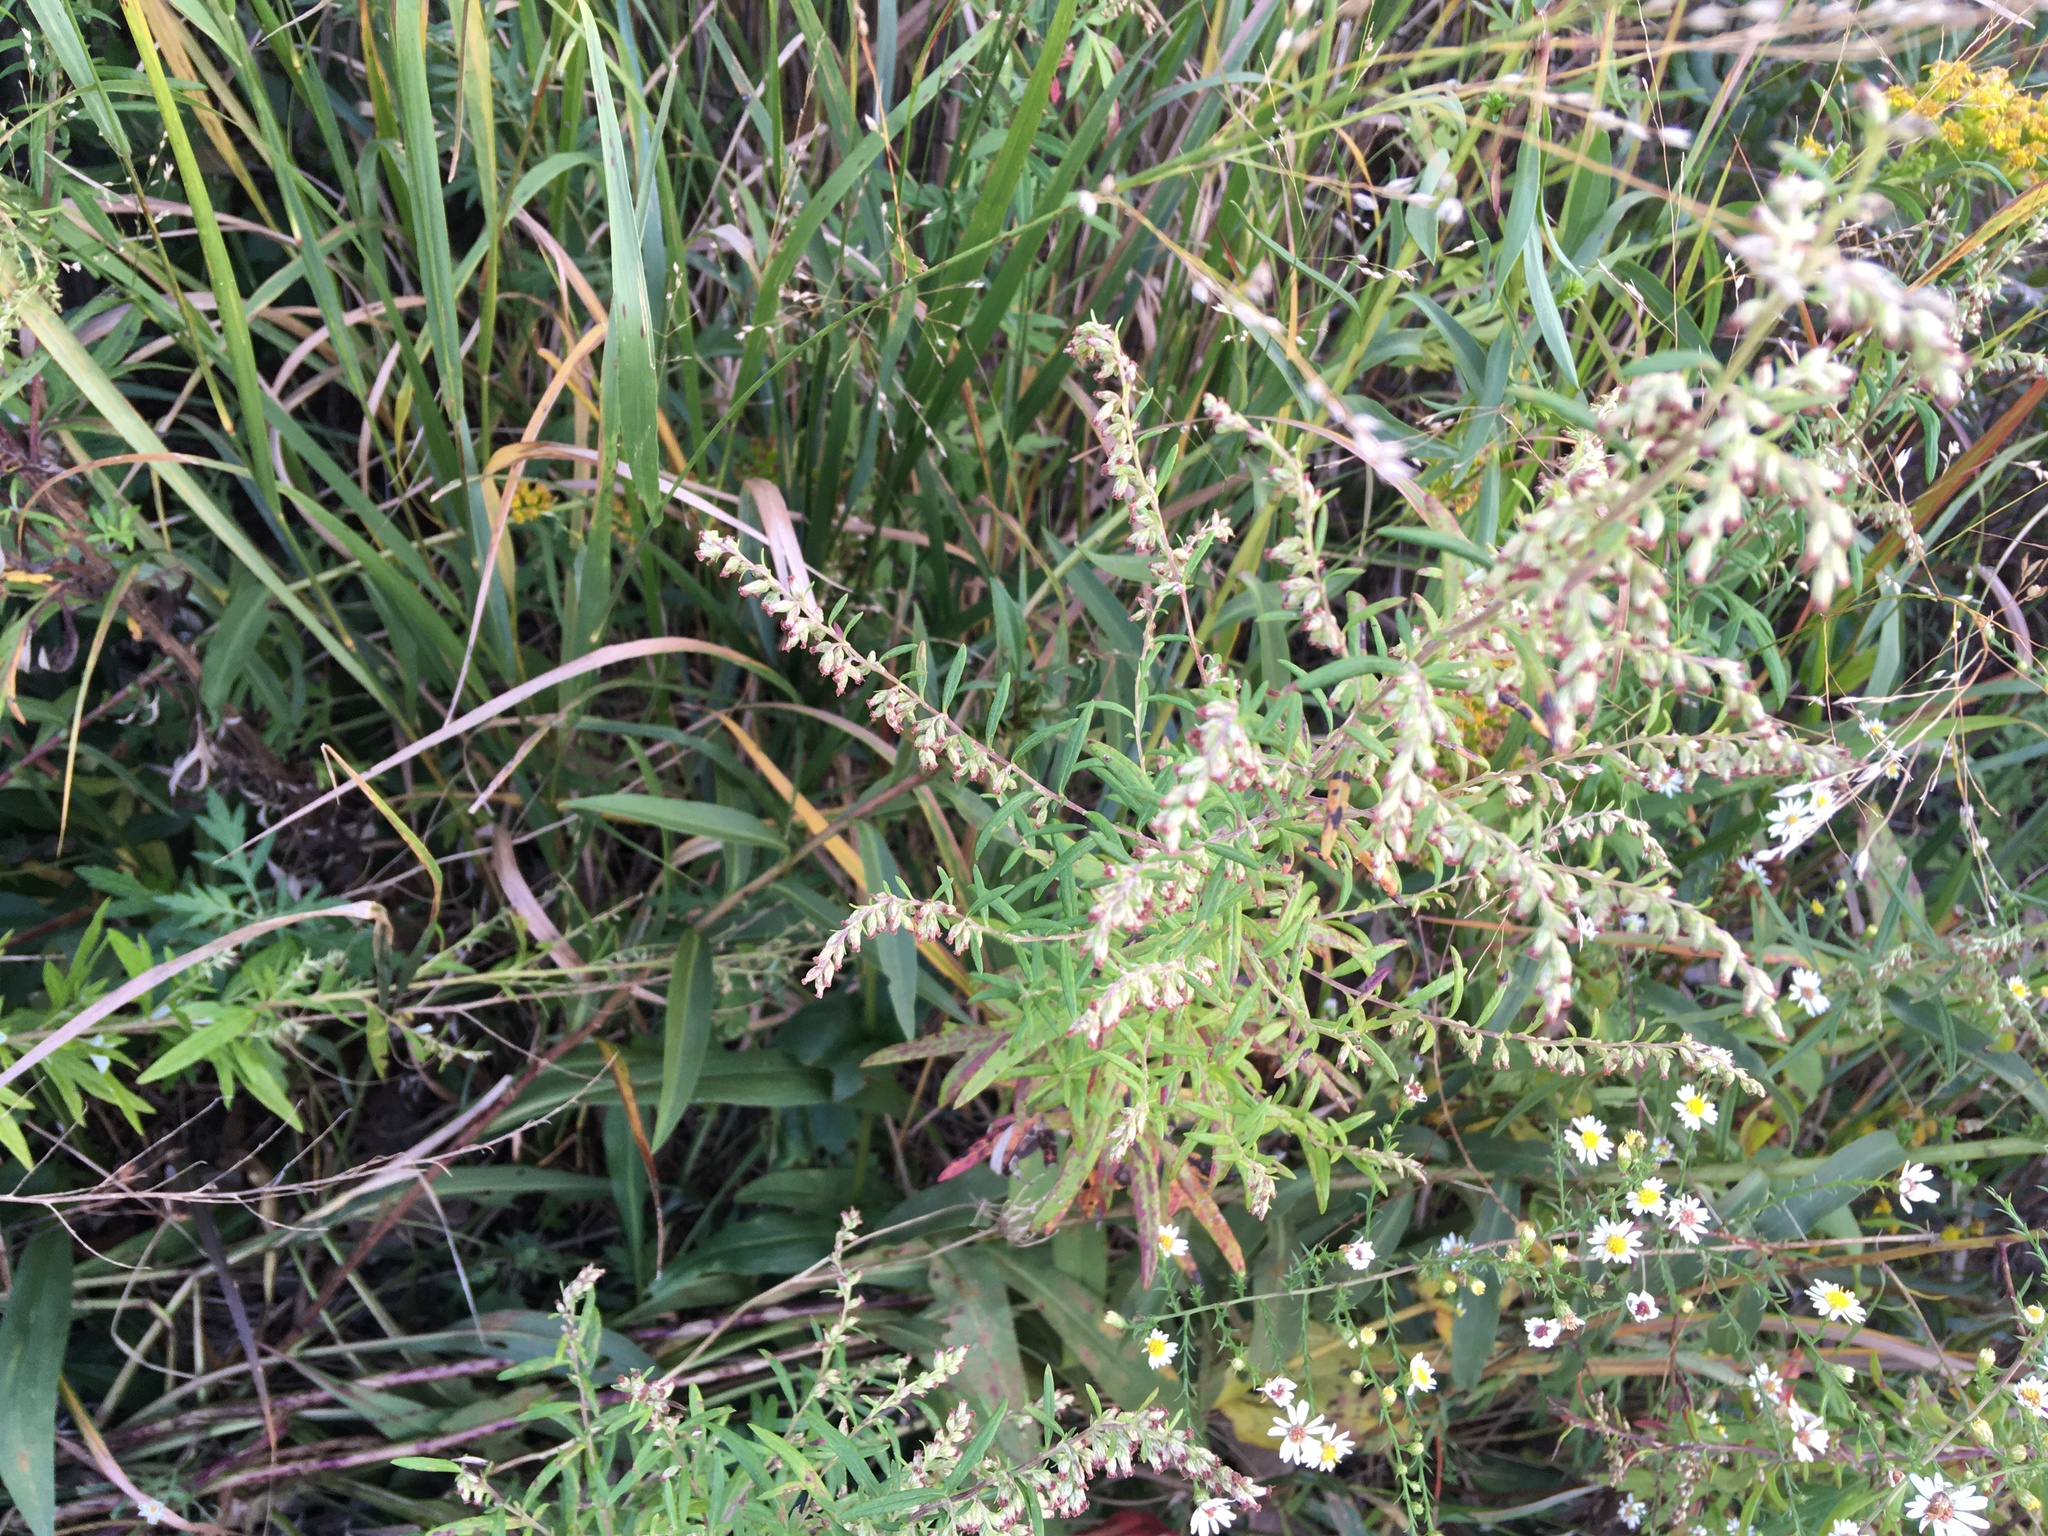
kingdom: Plantae
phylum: Tracheophyta
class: Magnoliopsida
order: Asterales
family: Asteraceae
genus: Artemisia
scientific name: Artemisia vulgaris
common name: Mugwort
